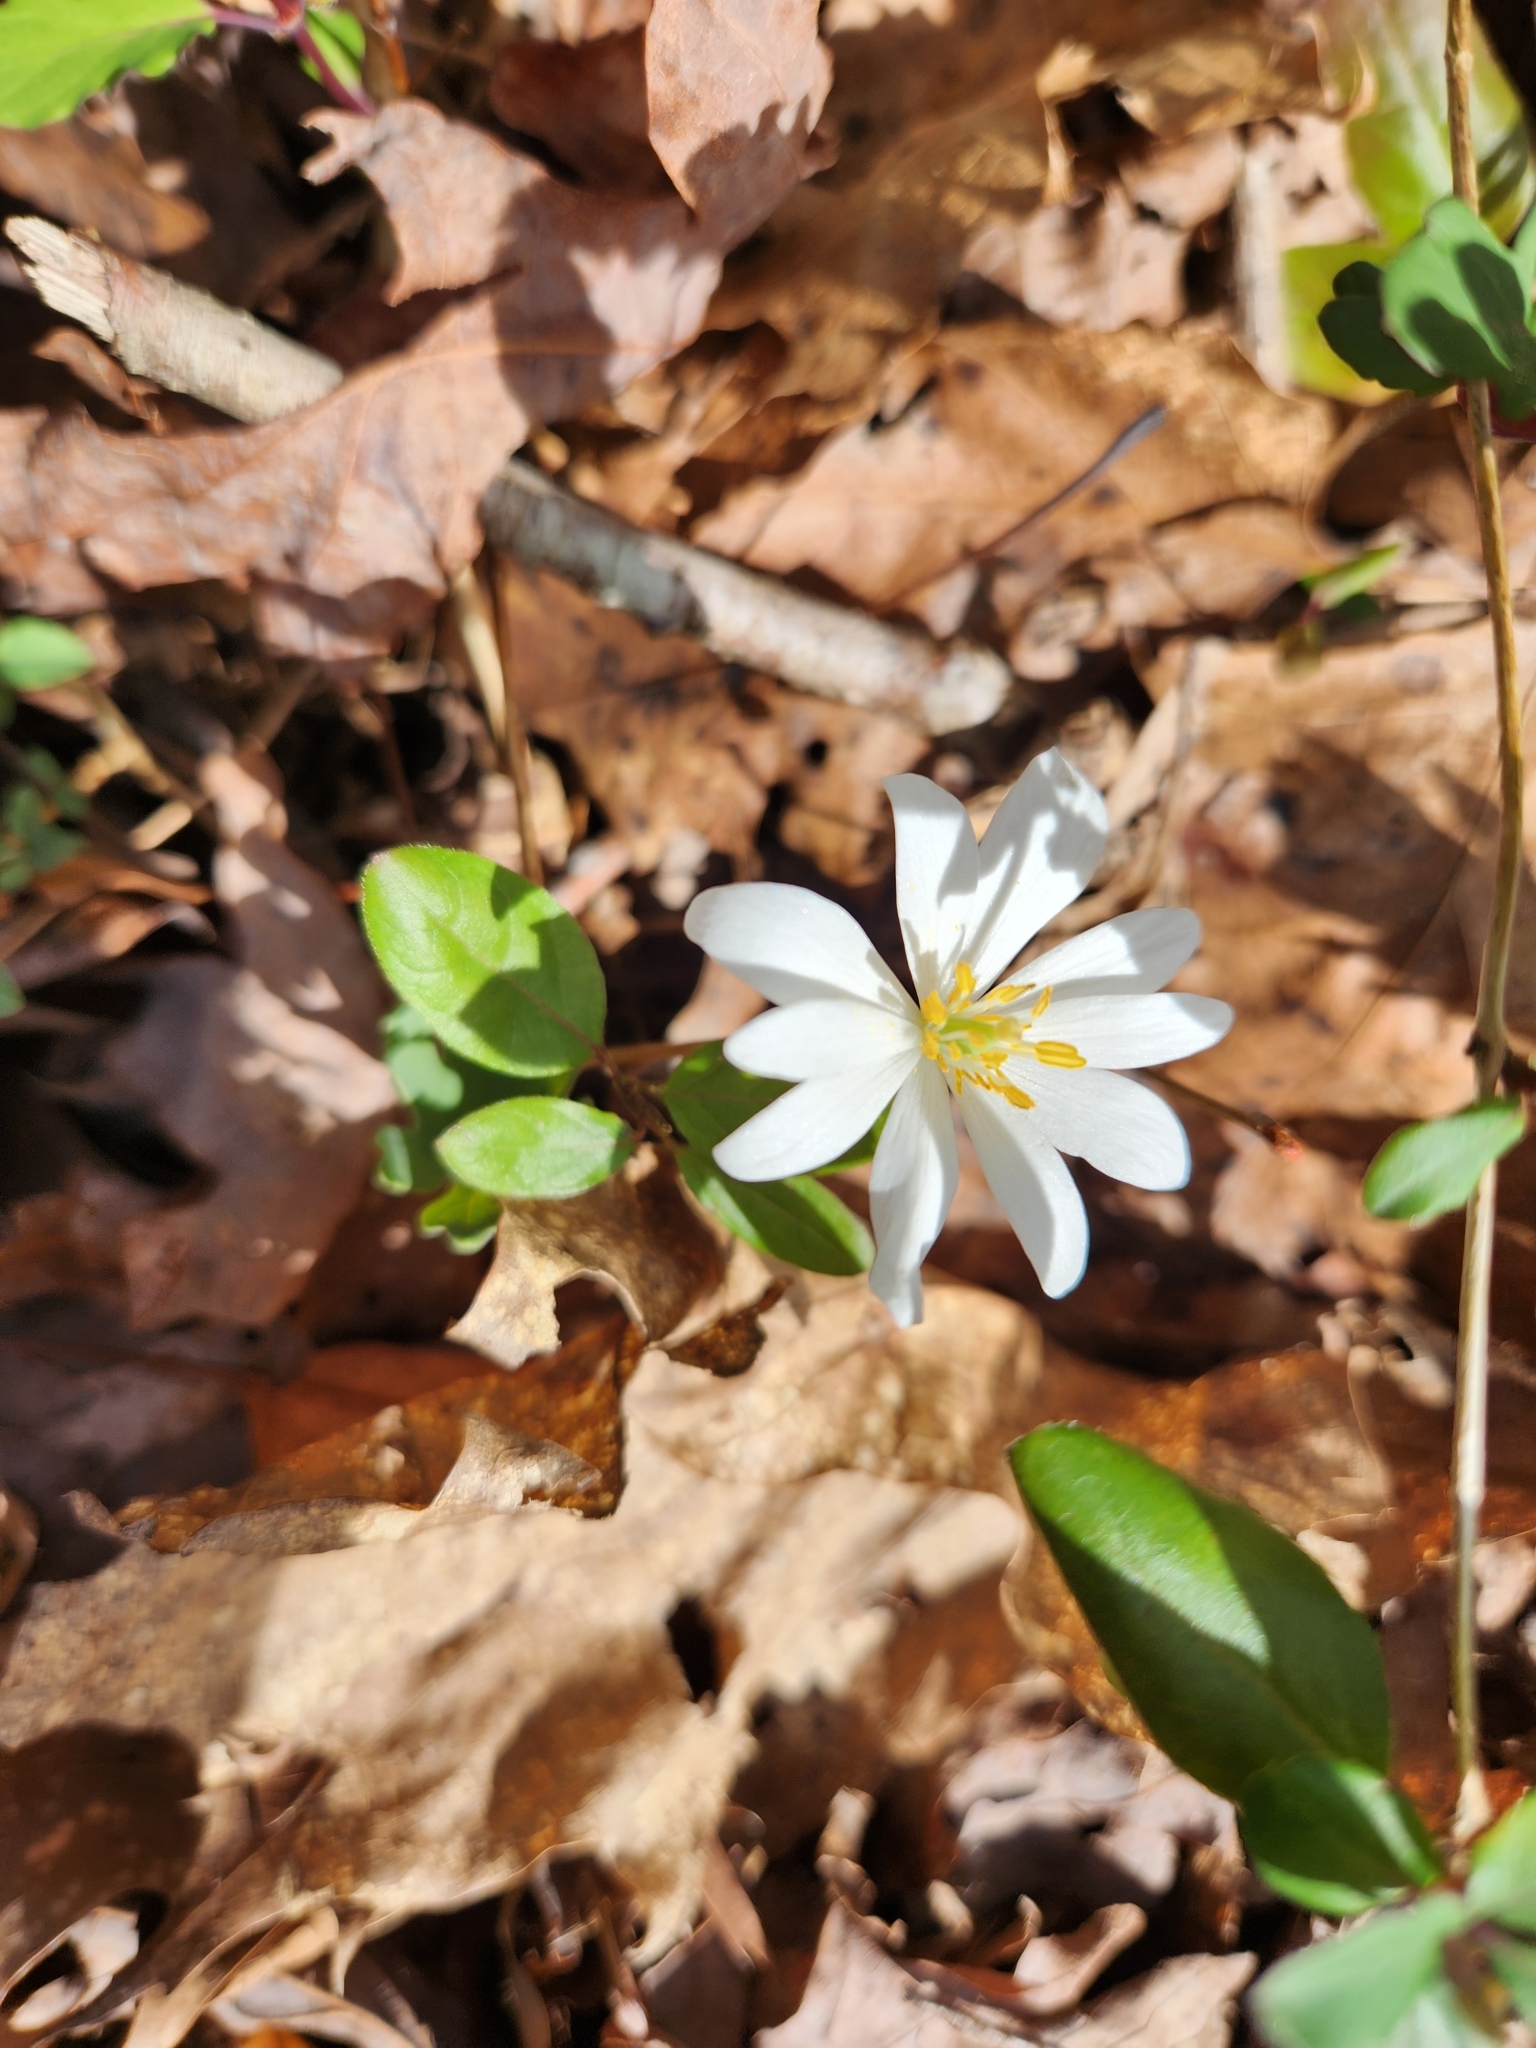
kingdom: Plantae
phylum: Tracheophyta
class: Magnoliopsida
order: Ranunculales
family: Papaveraceae
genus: Sanguinaria
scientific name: Sanguinaria canadensis
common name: Bloodroot
